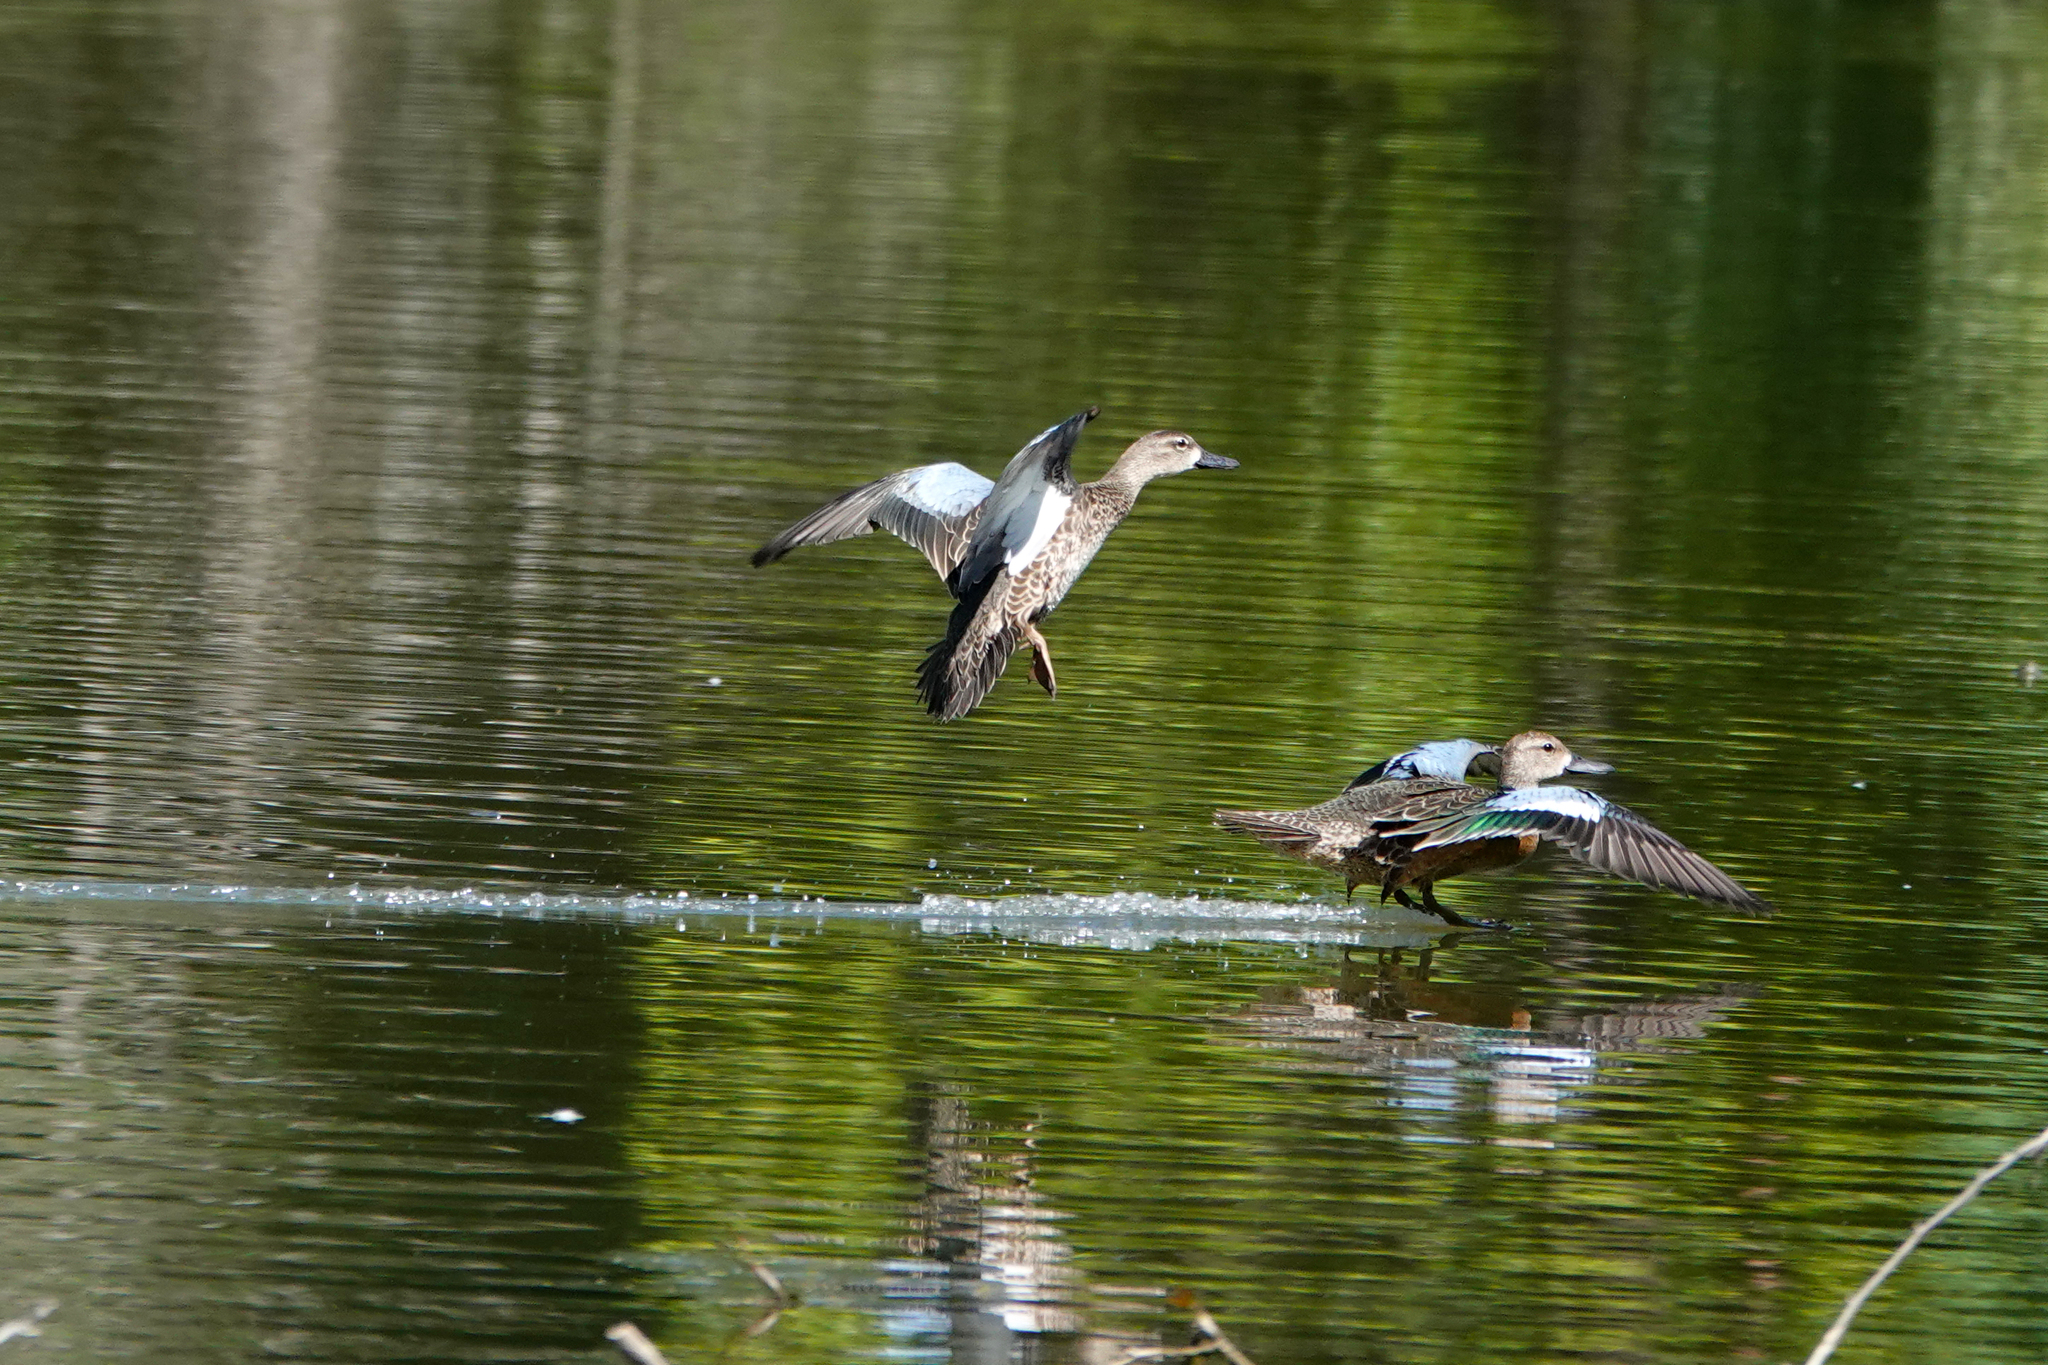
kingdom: Animalia
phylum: Chordata
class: Aves
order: Anseriformes
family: Anatidae
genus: Spatula
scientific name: Spatula discors
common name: Blue-winged teal
